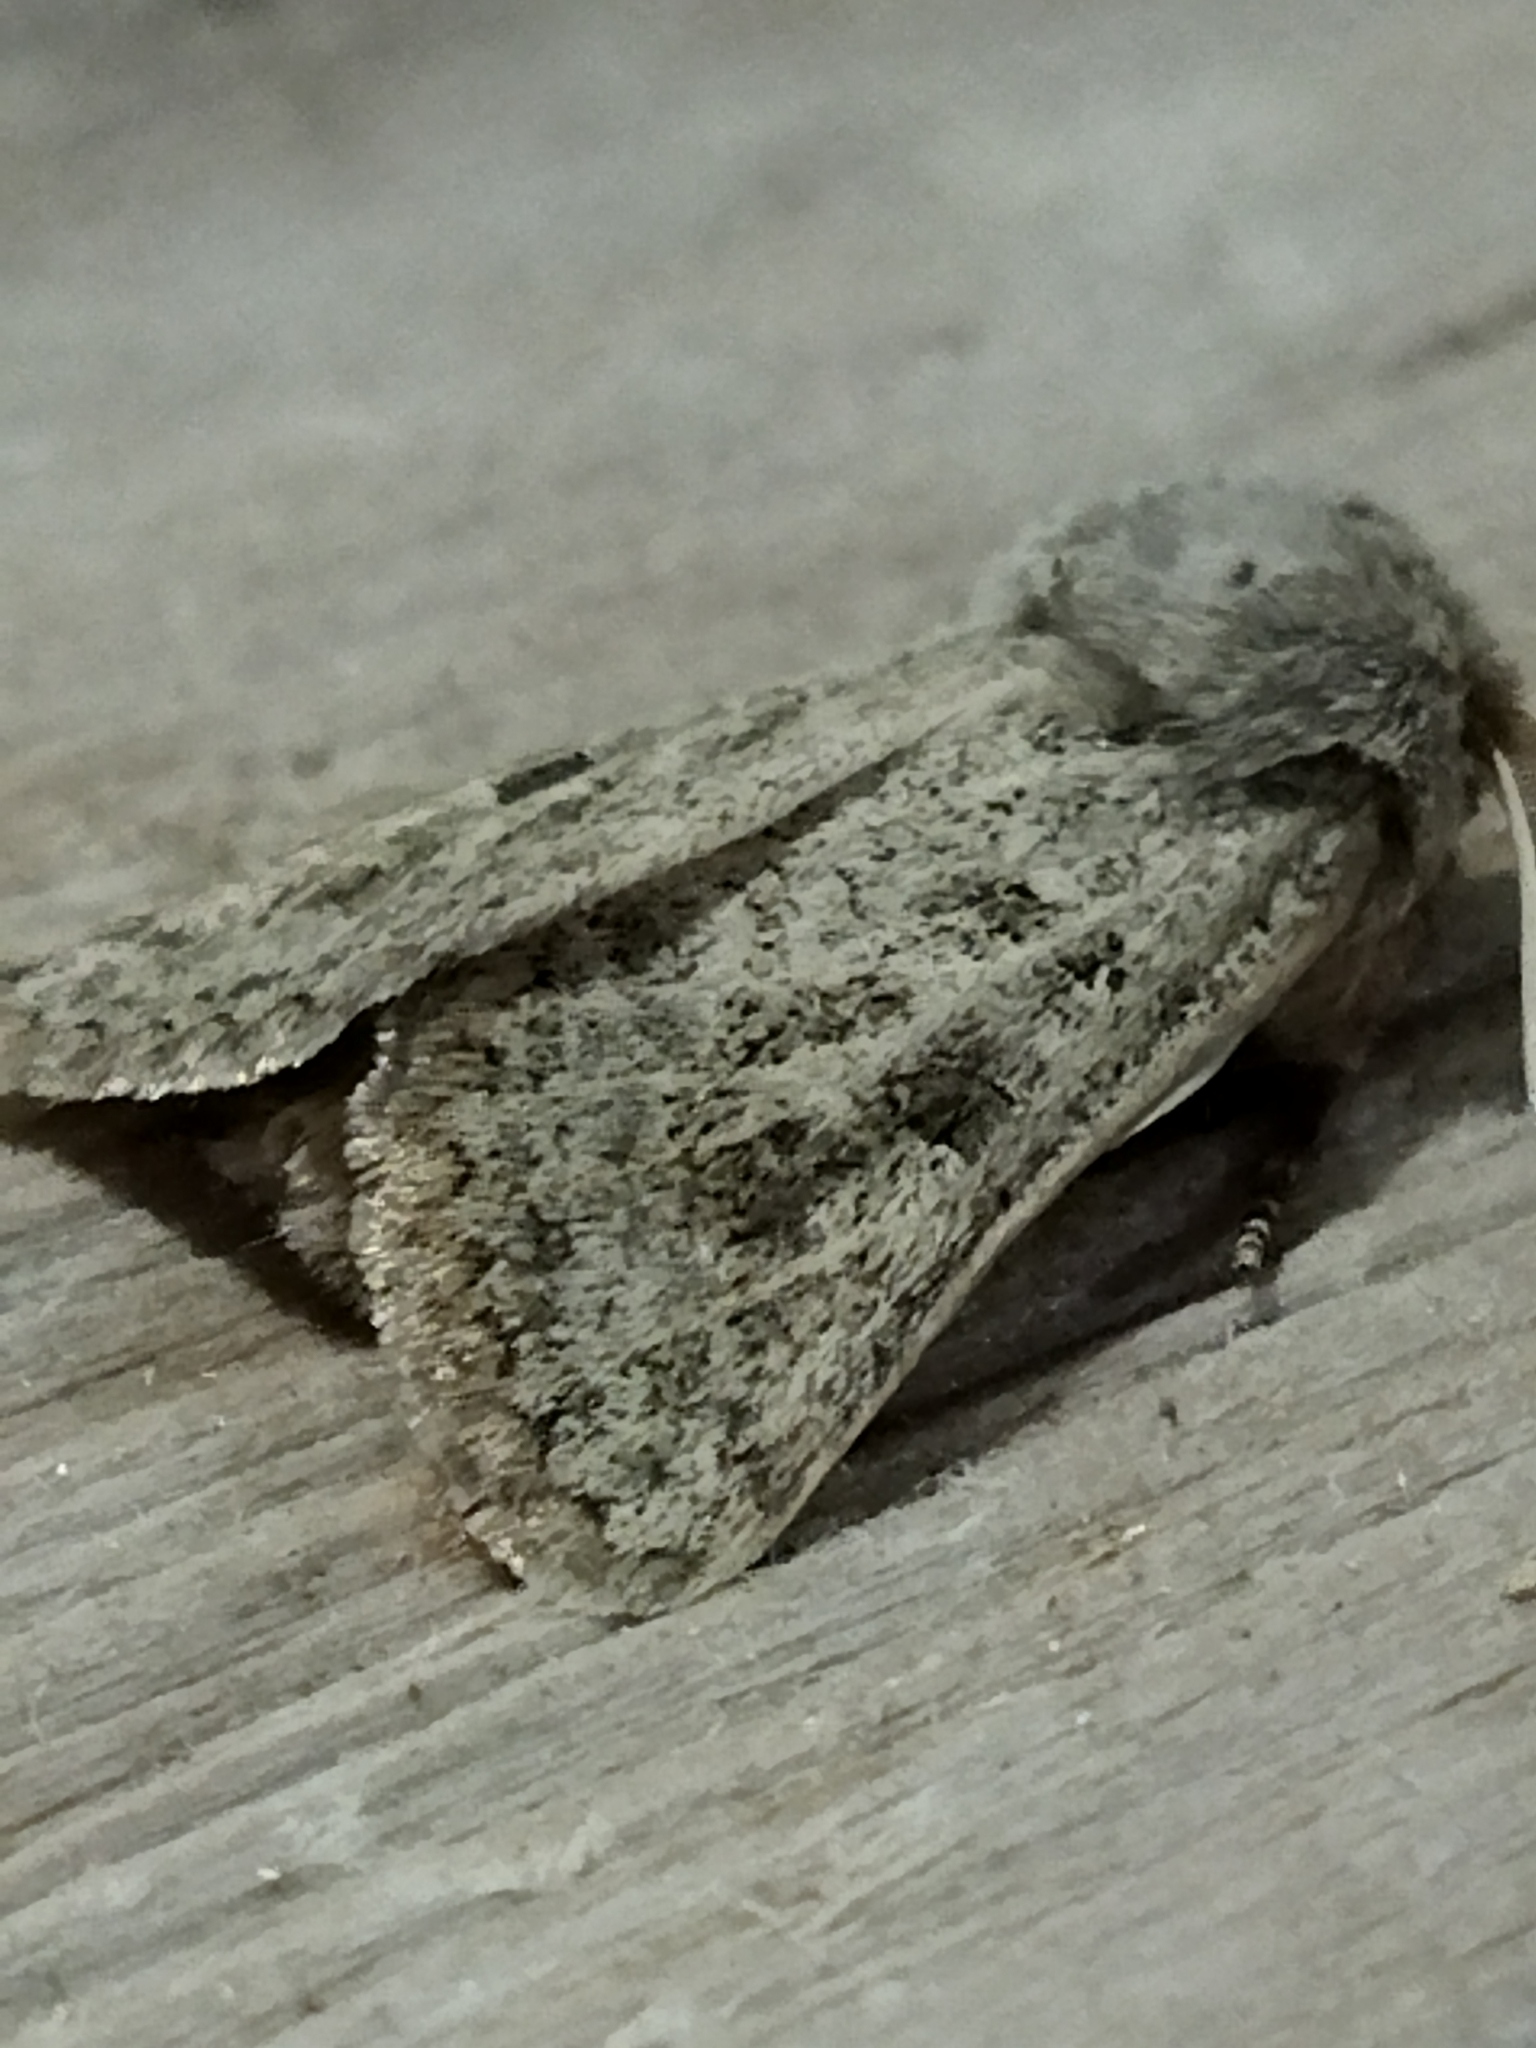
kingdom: Animalia
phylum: Arthropoda
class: Insecta
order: Lepidoptera
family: Noctuidae
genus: Episema
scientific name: Episema lederi
